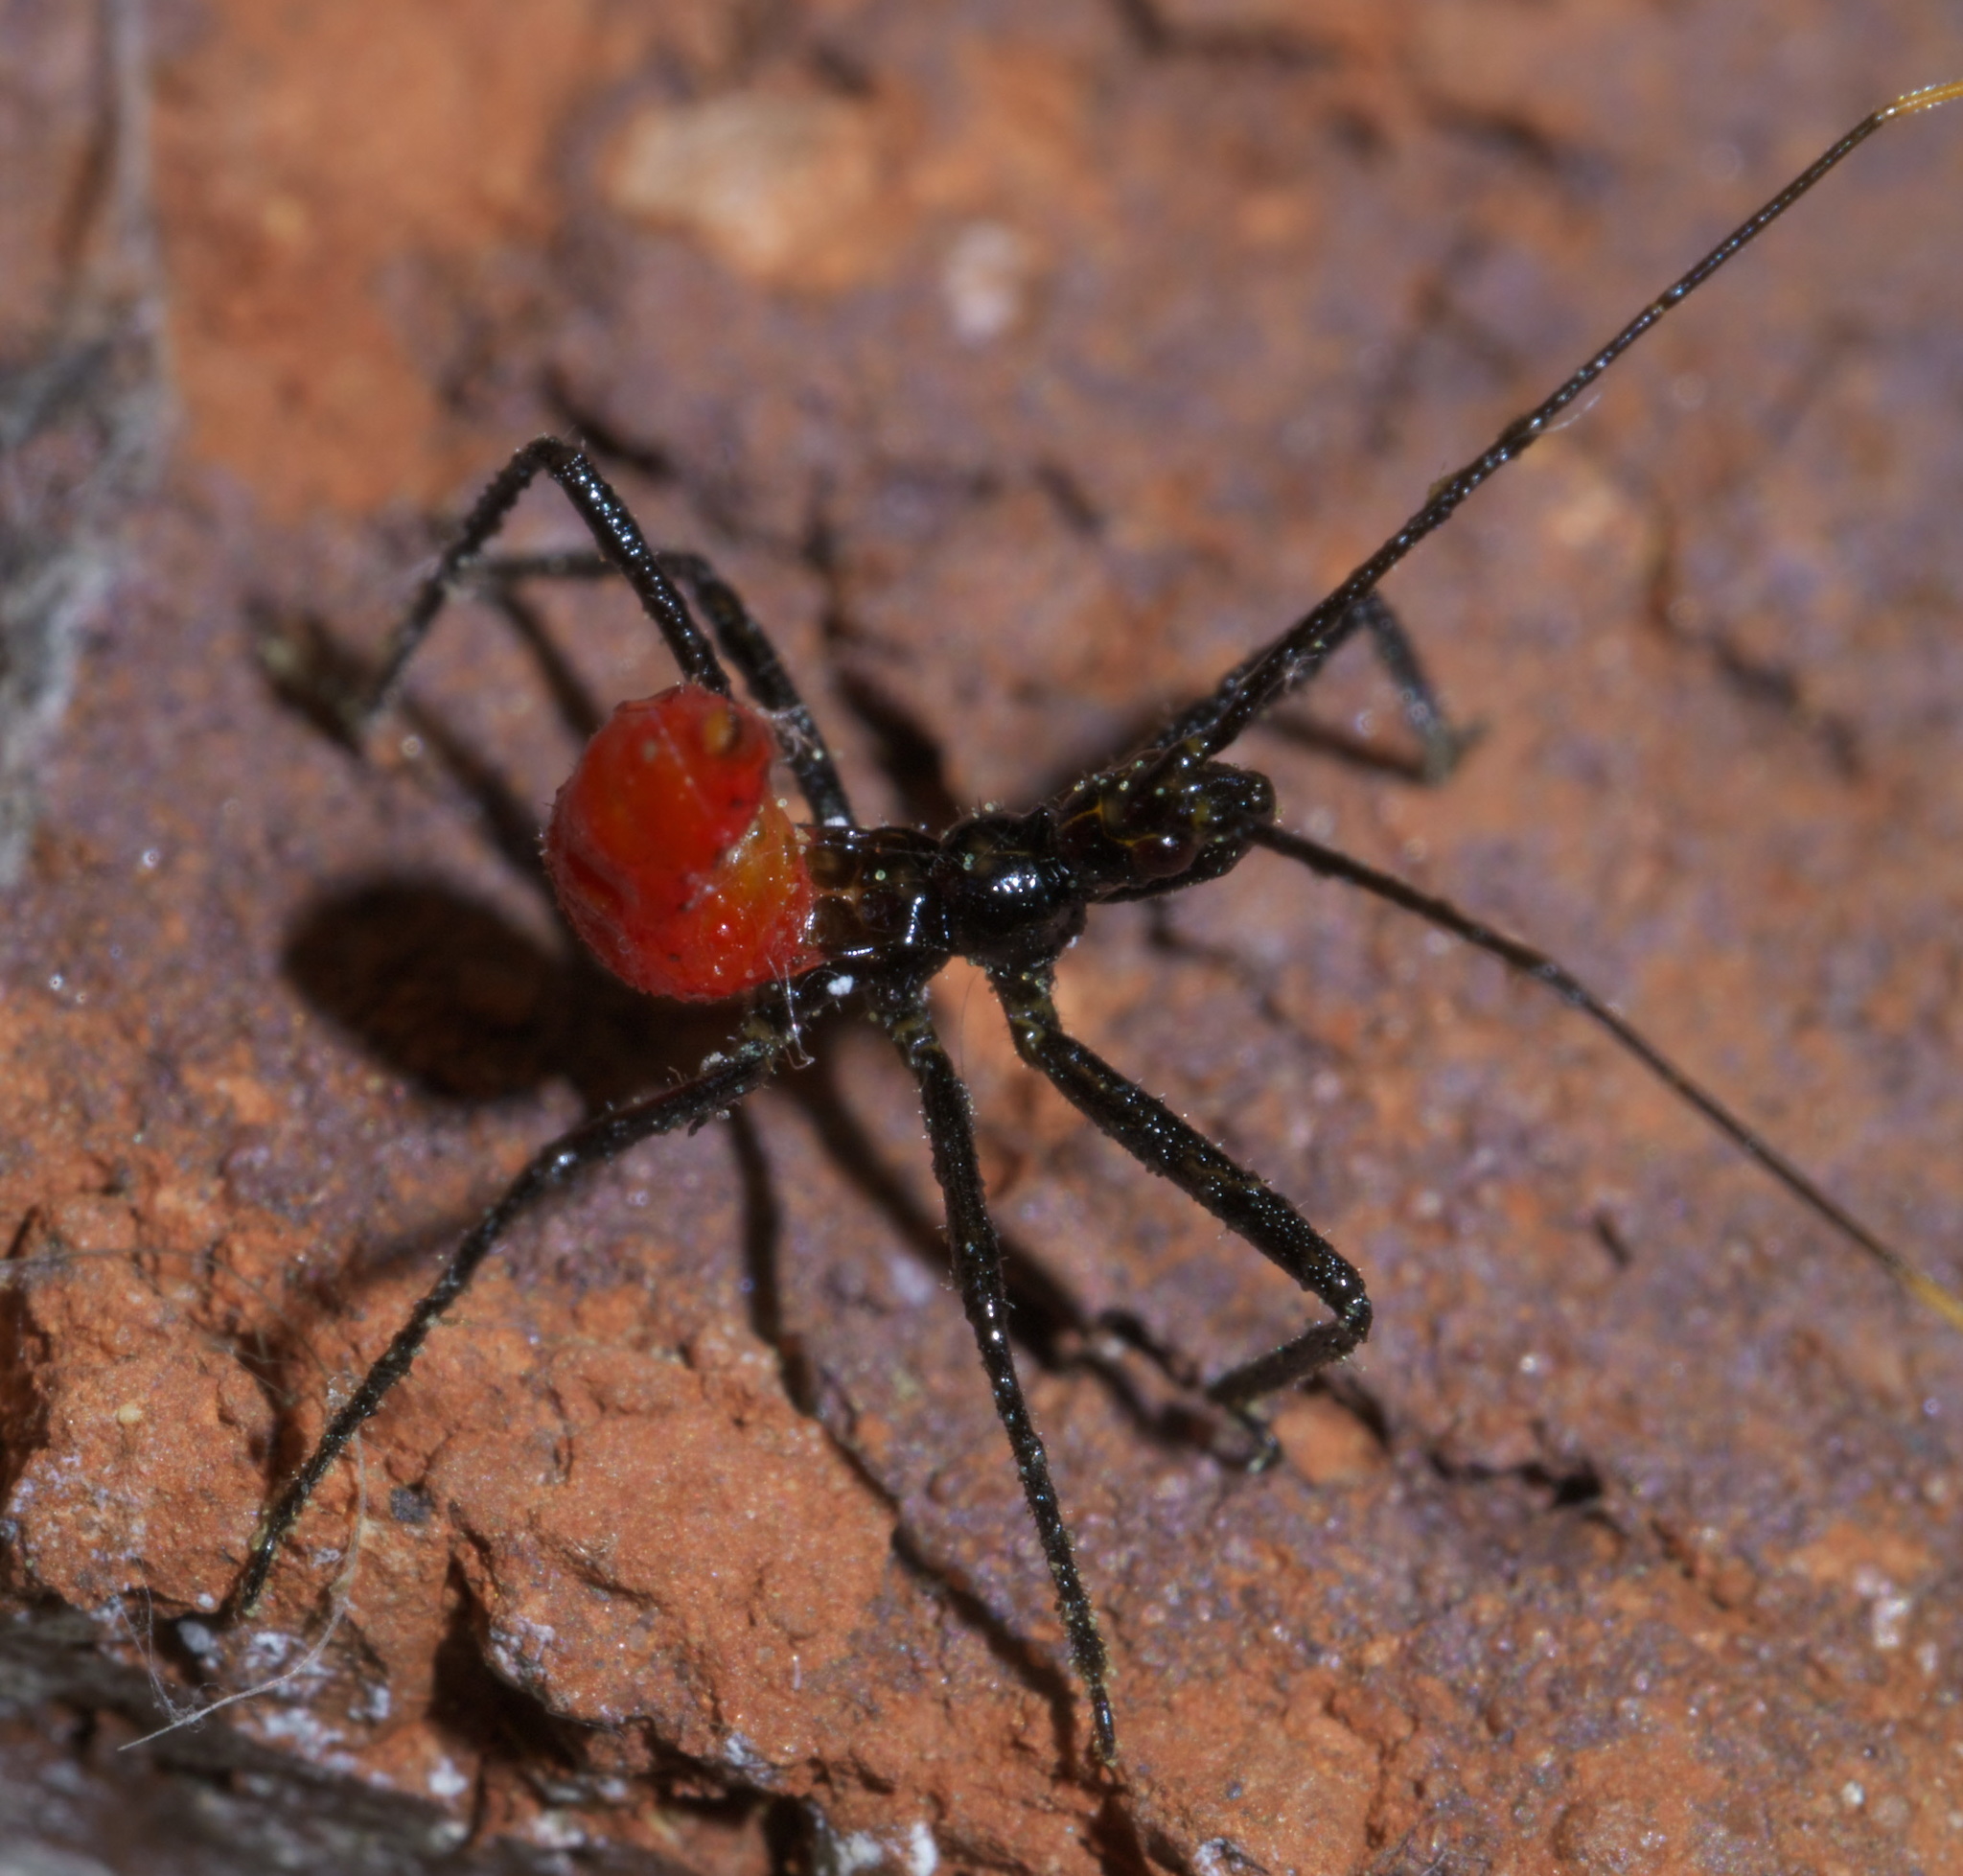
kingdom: Animalia
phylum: Arthropoda
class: Insecta
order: Hemiptera
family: Reduviidae
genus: Arilus
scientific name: Arilus cristatus
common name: North american wheel bug
